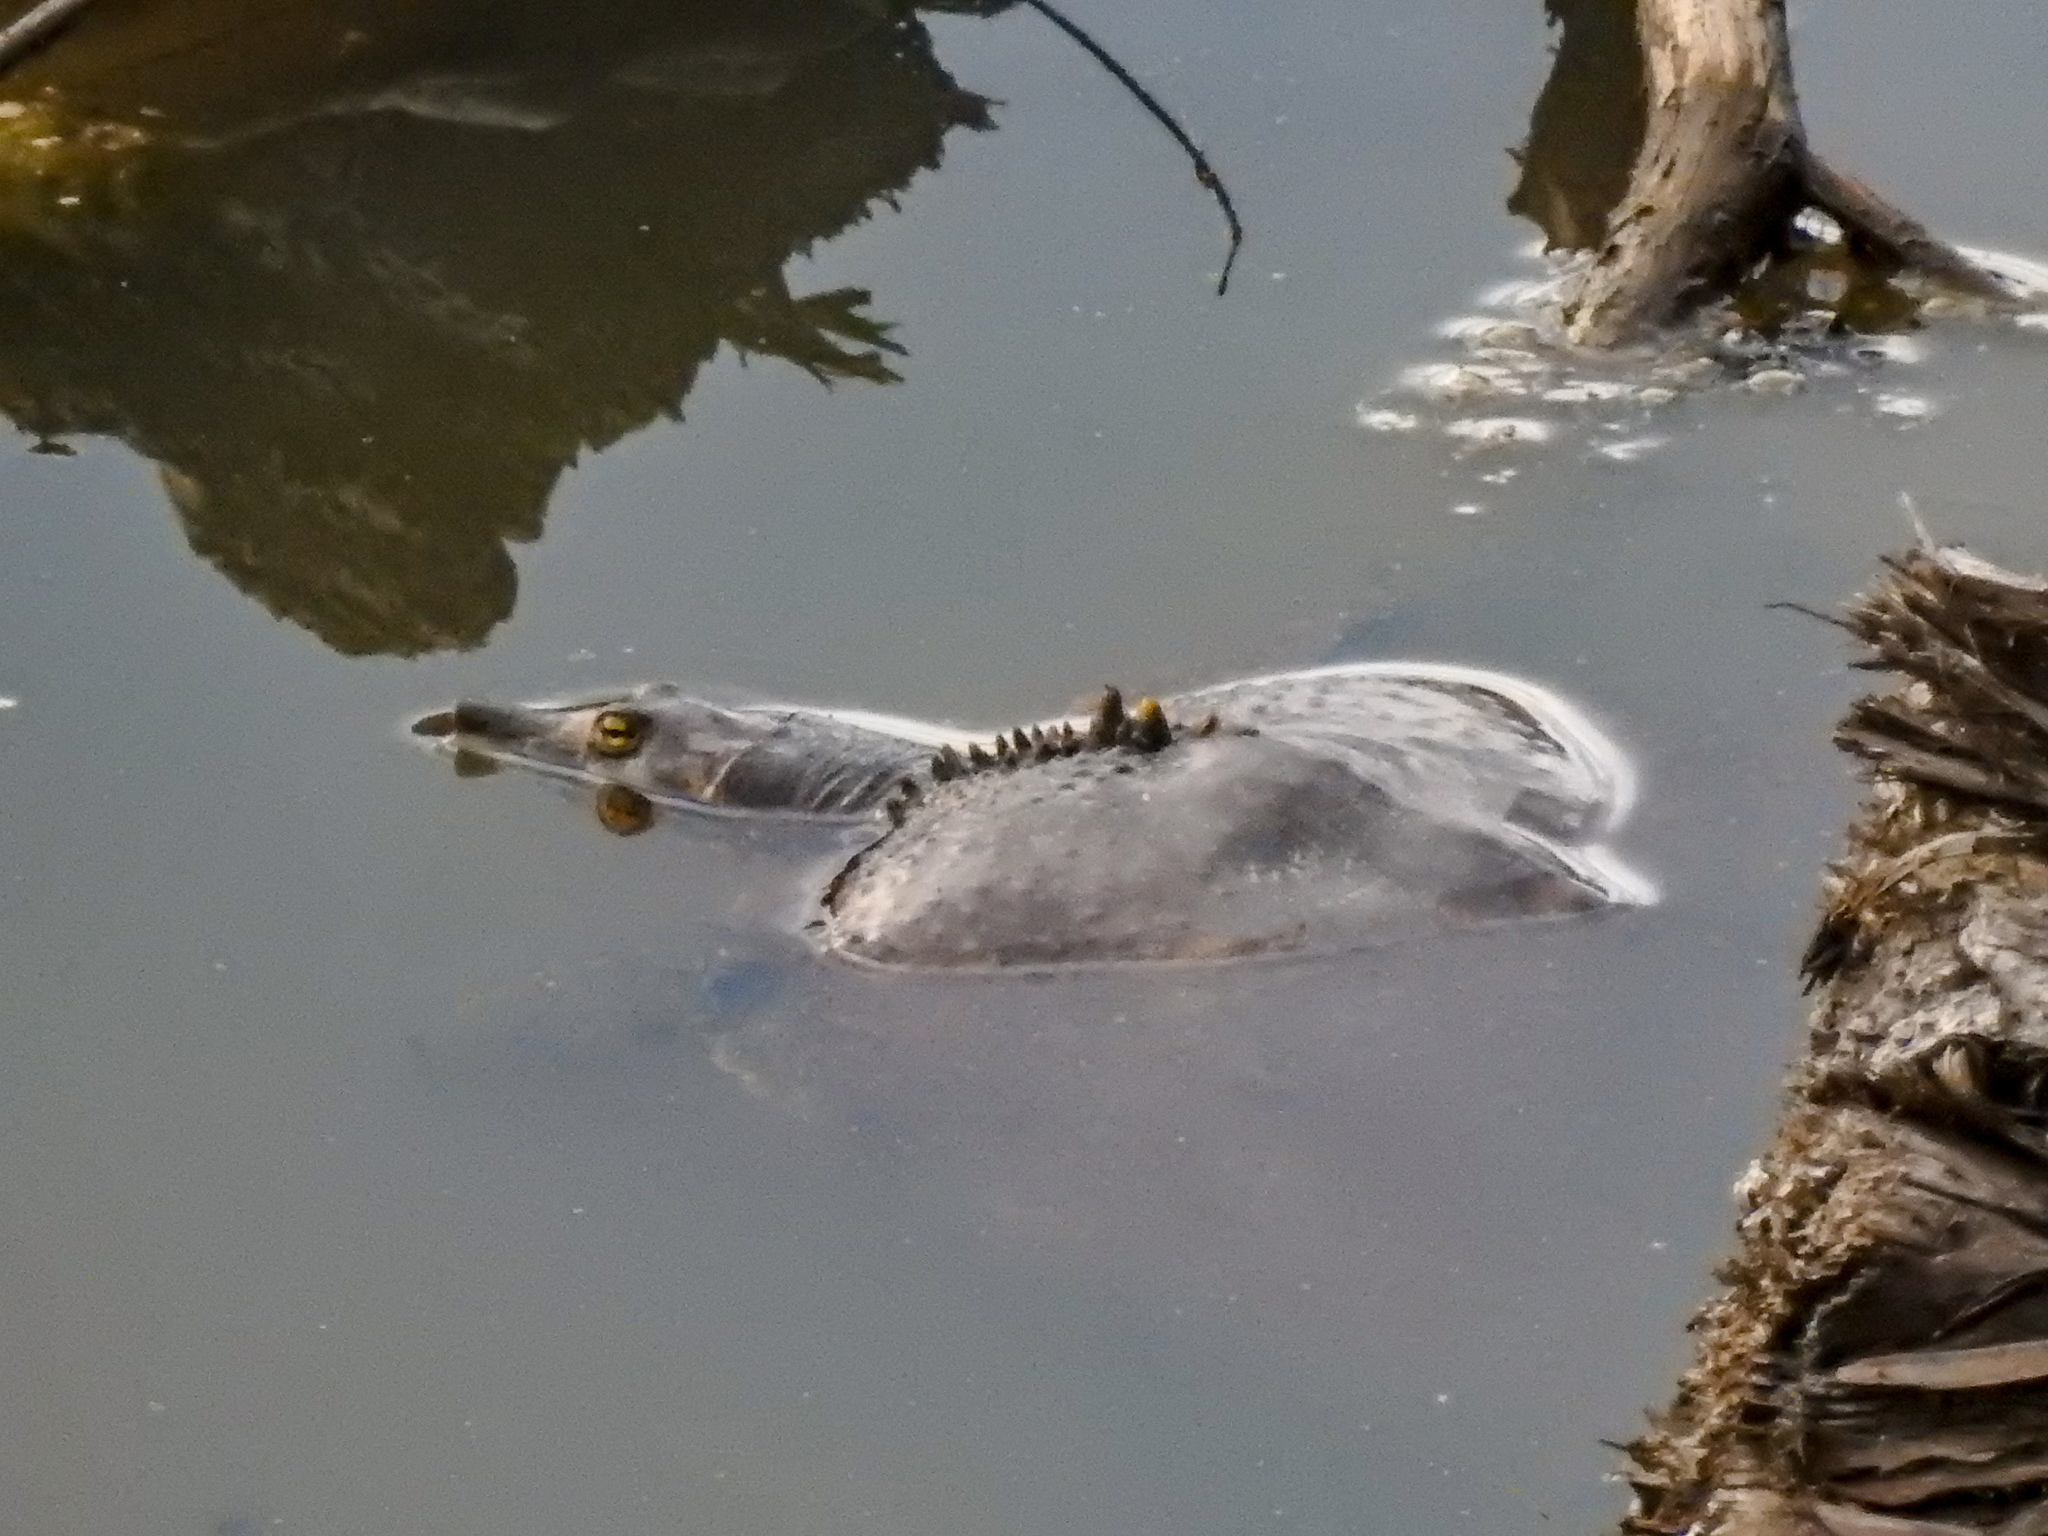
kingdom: Animalia
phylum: Chordata
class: Testudines
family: Trionychidae
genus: Apalone
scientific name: Apalone spinifera
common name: Spiny softshell turtle
